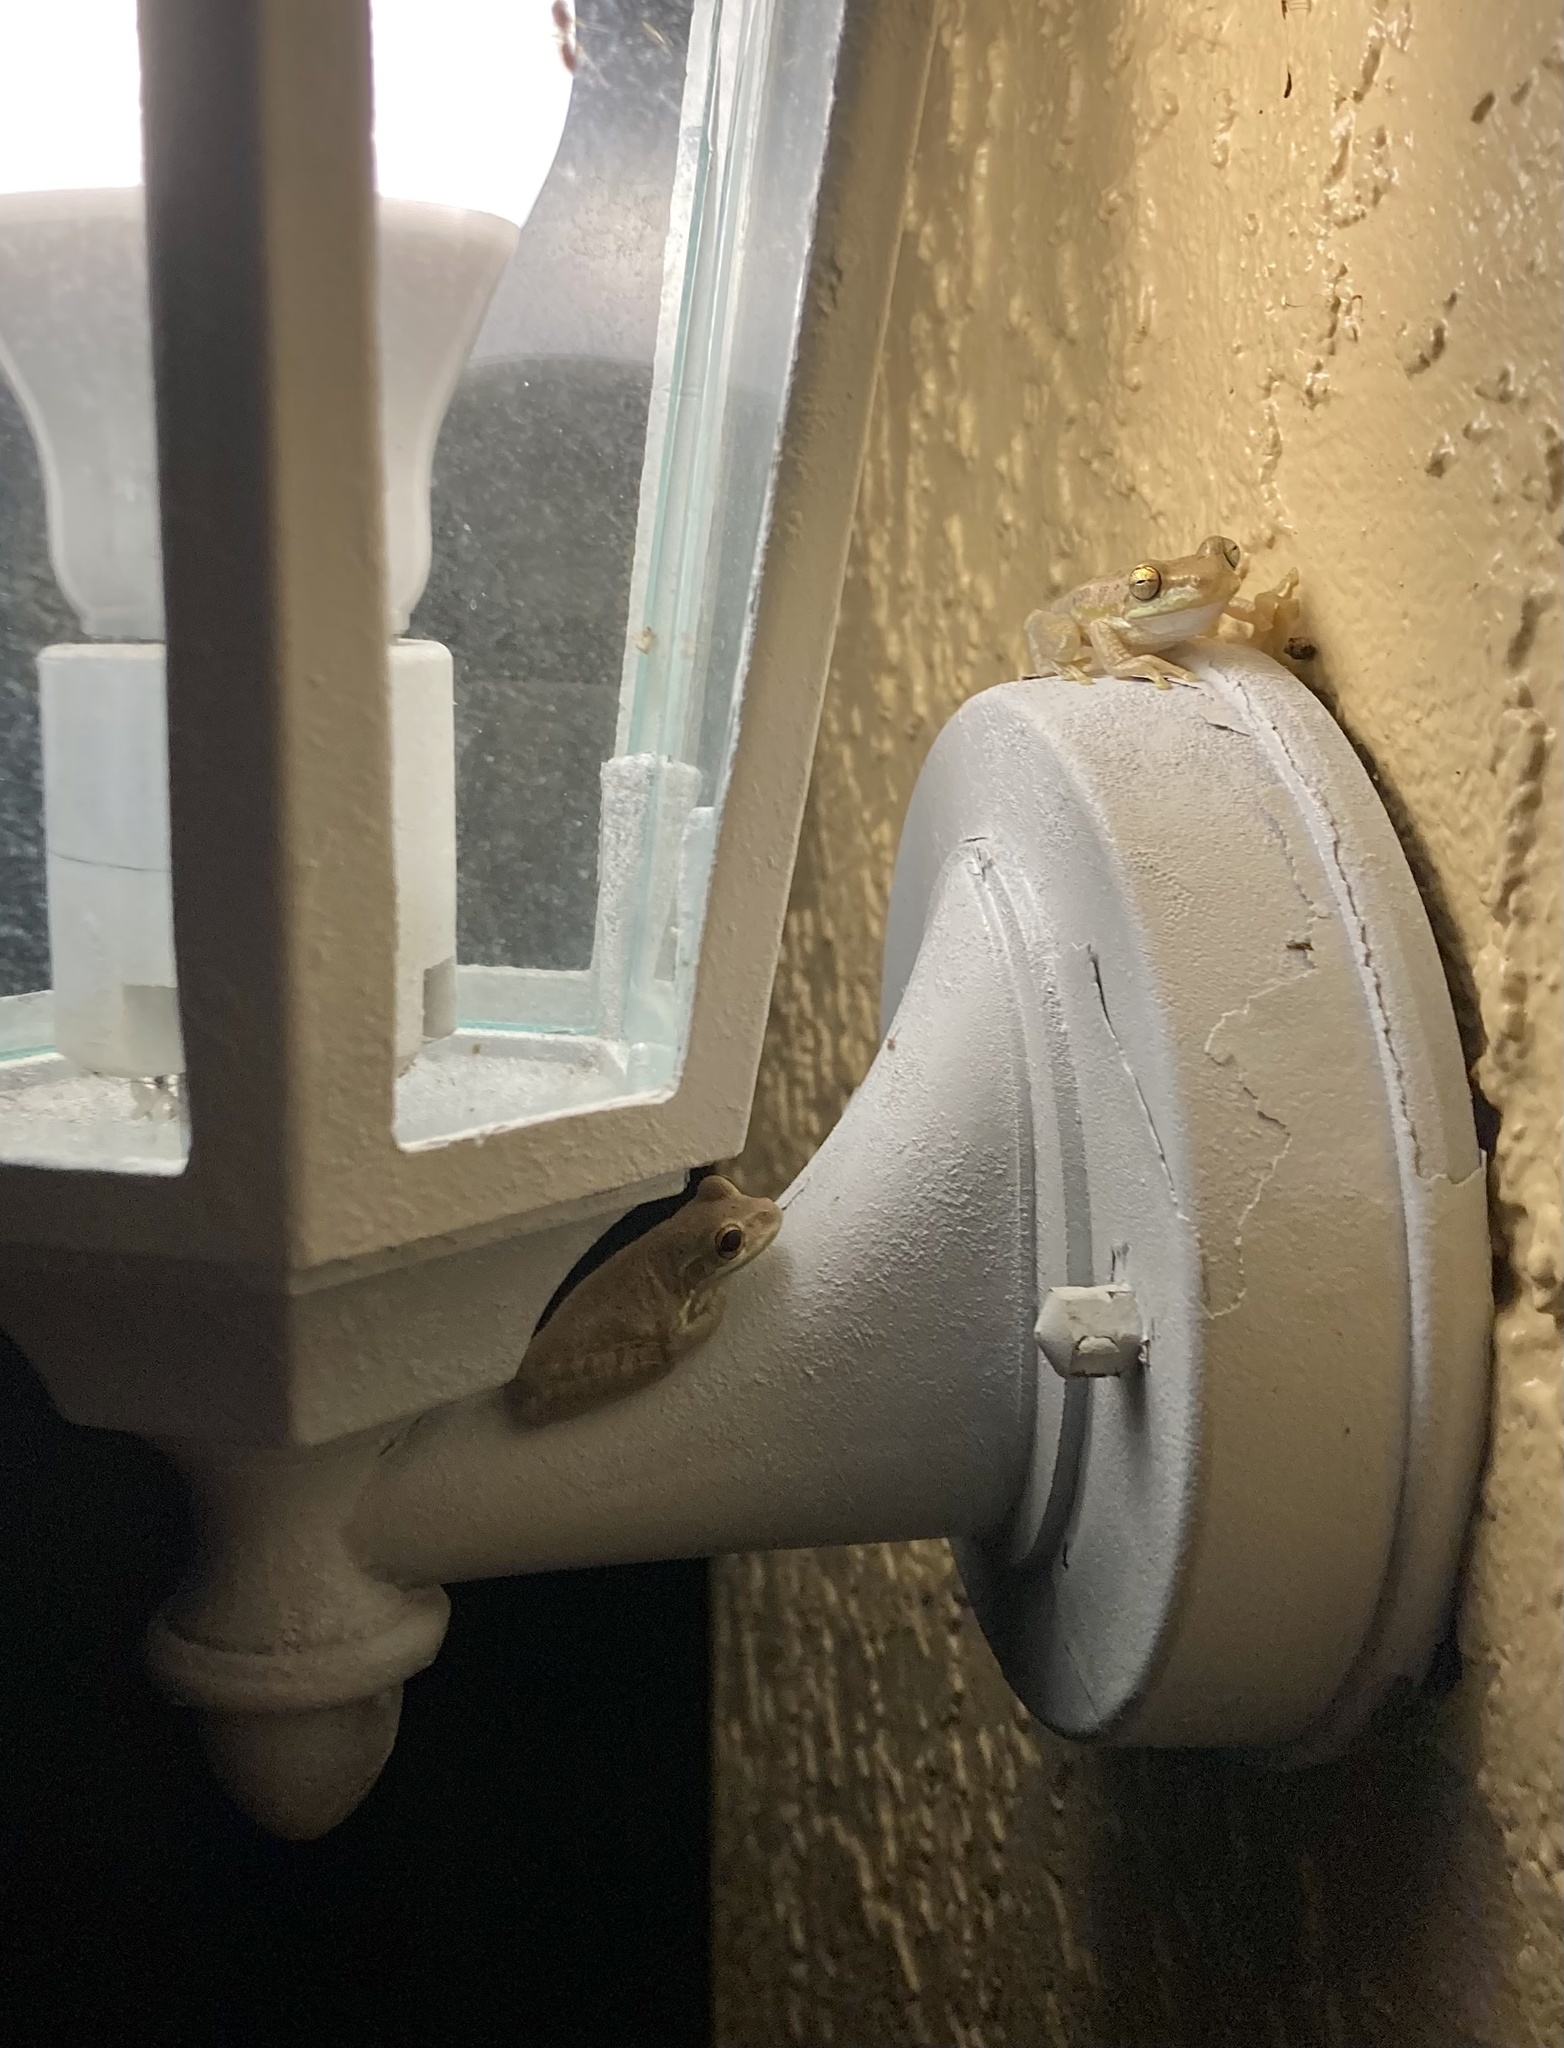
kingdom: Animalia
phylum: Chordata
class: Amphibia
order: Anura
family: Hylidae
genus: Osteopilus
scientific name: Osteopilus septentrionalis
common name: Cuban treefrog
